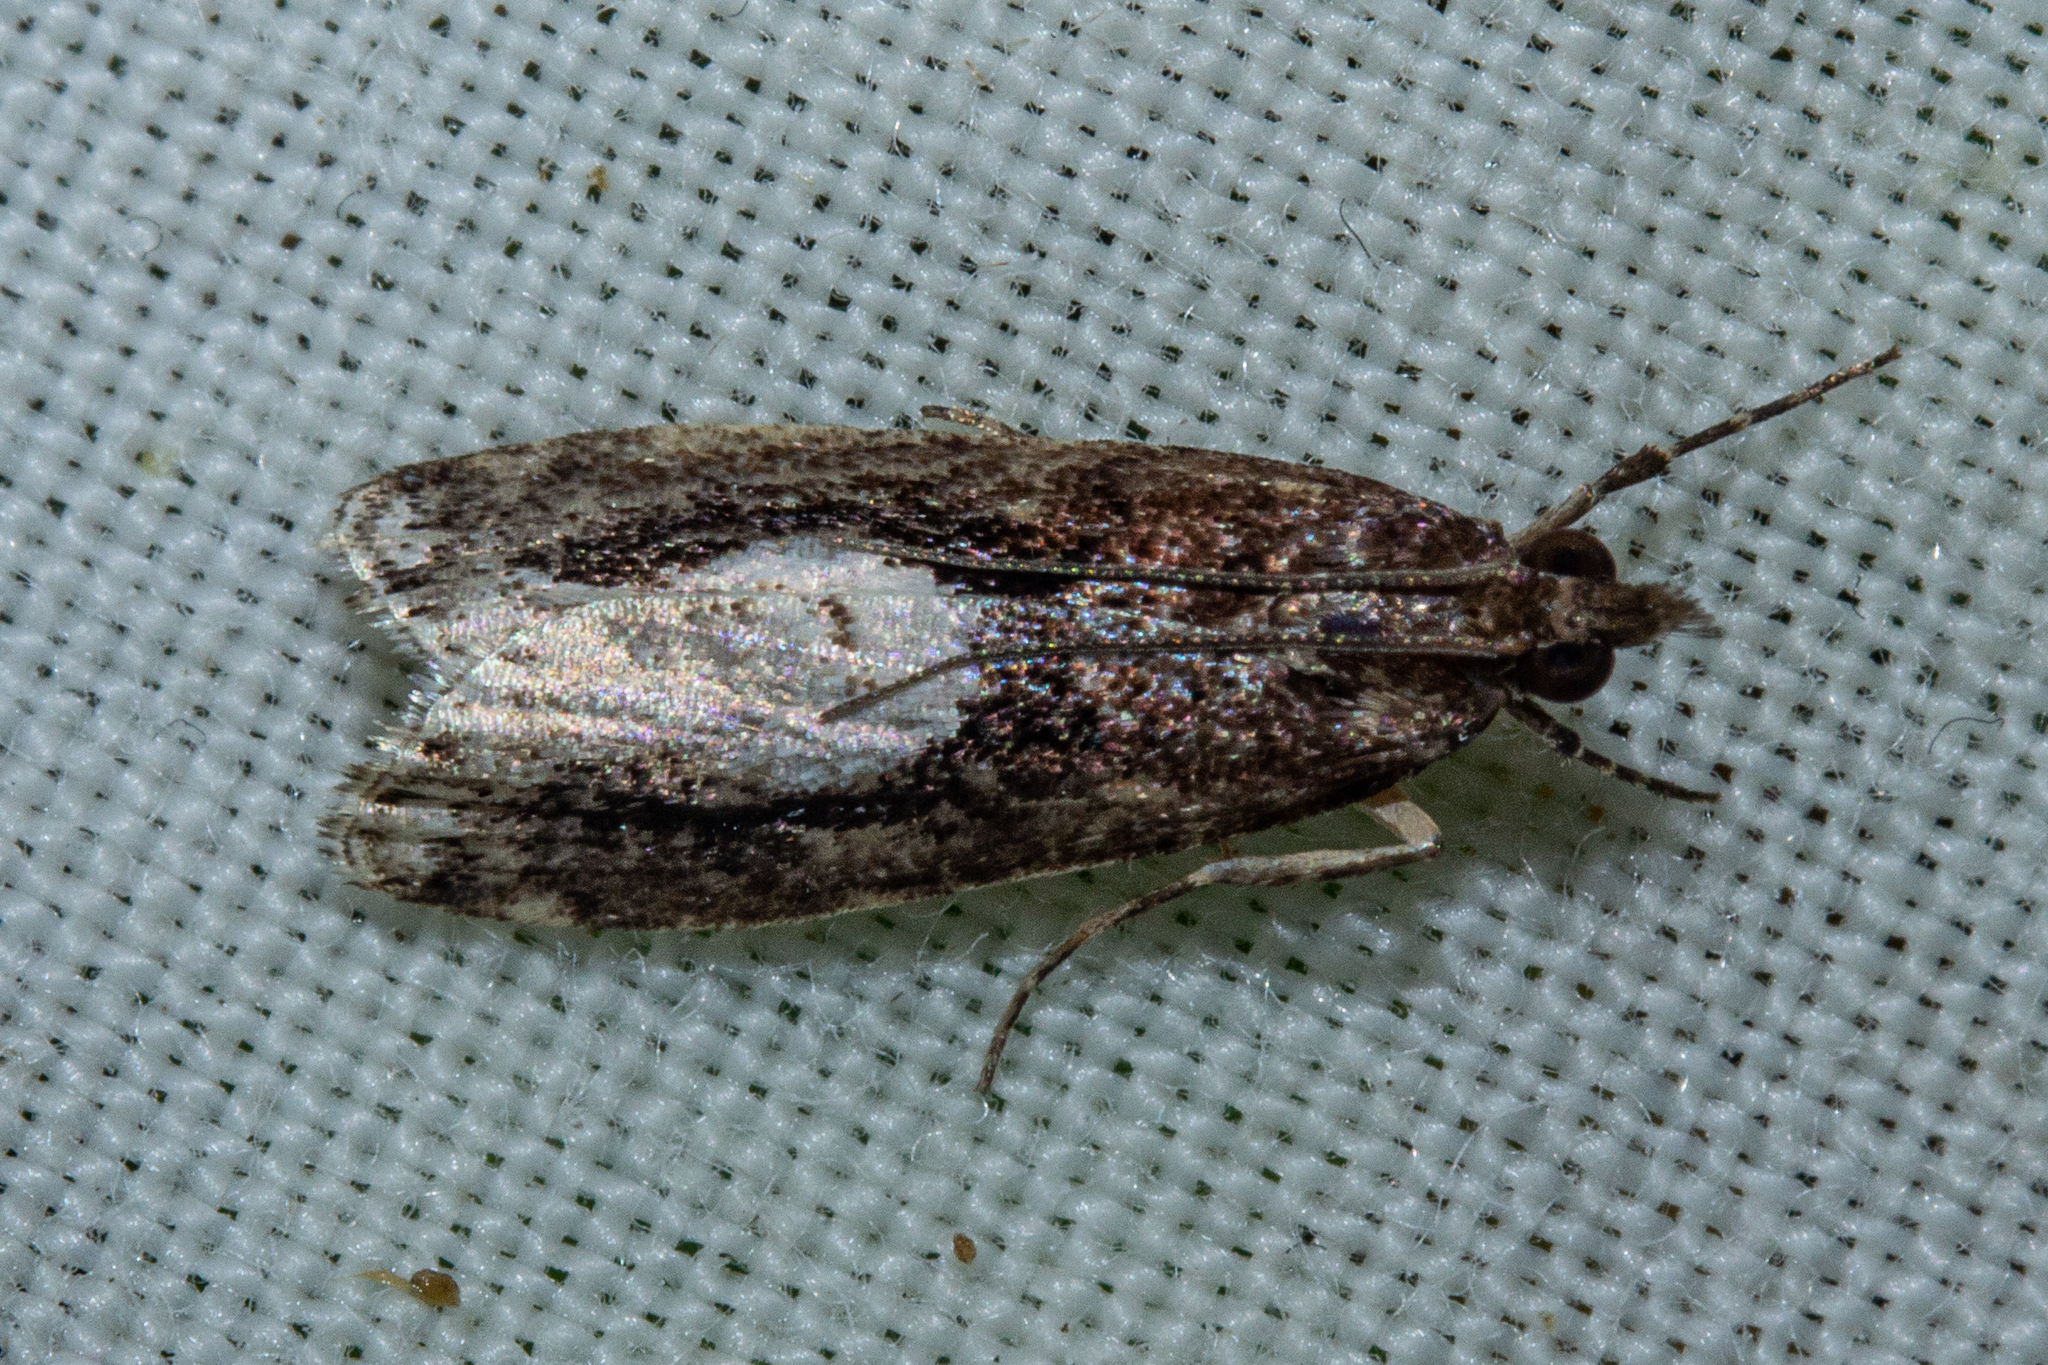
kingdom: Animalia
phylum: Arthropoda
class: Insecta
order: Lepidoptera
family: Crambidae
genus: Eudonia
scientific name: Eudonia hemiplaca
